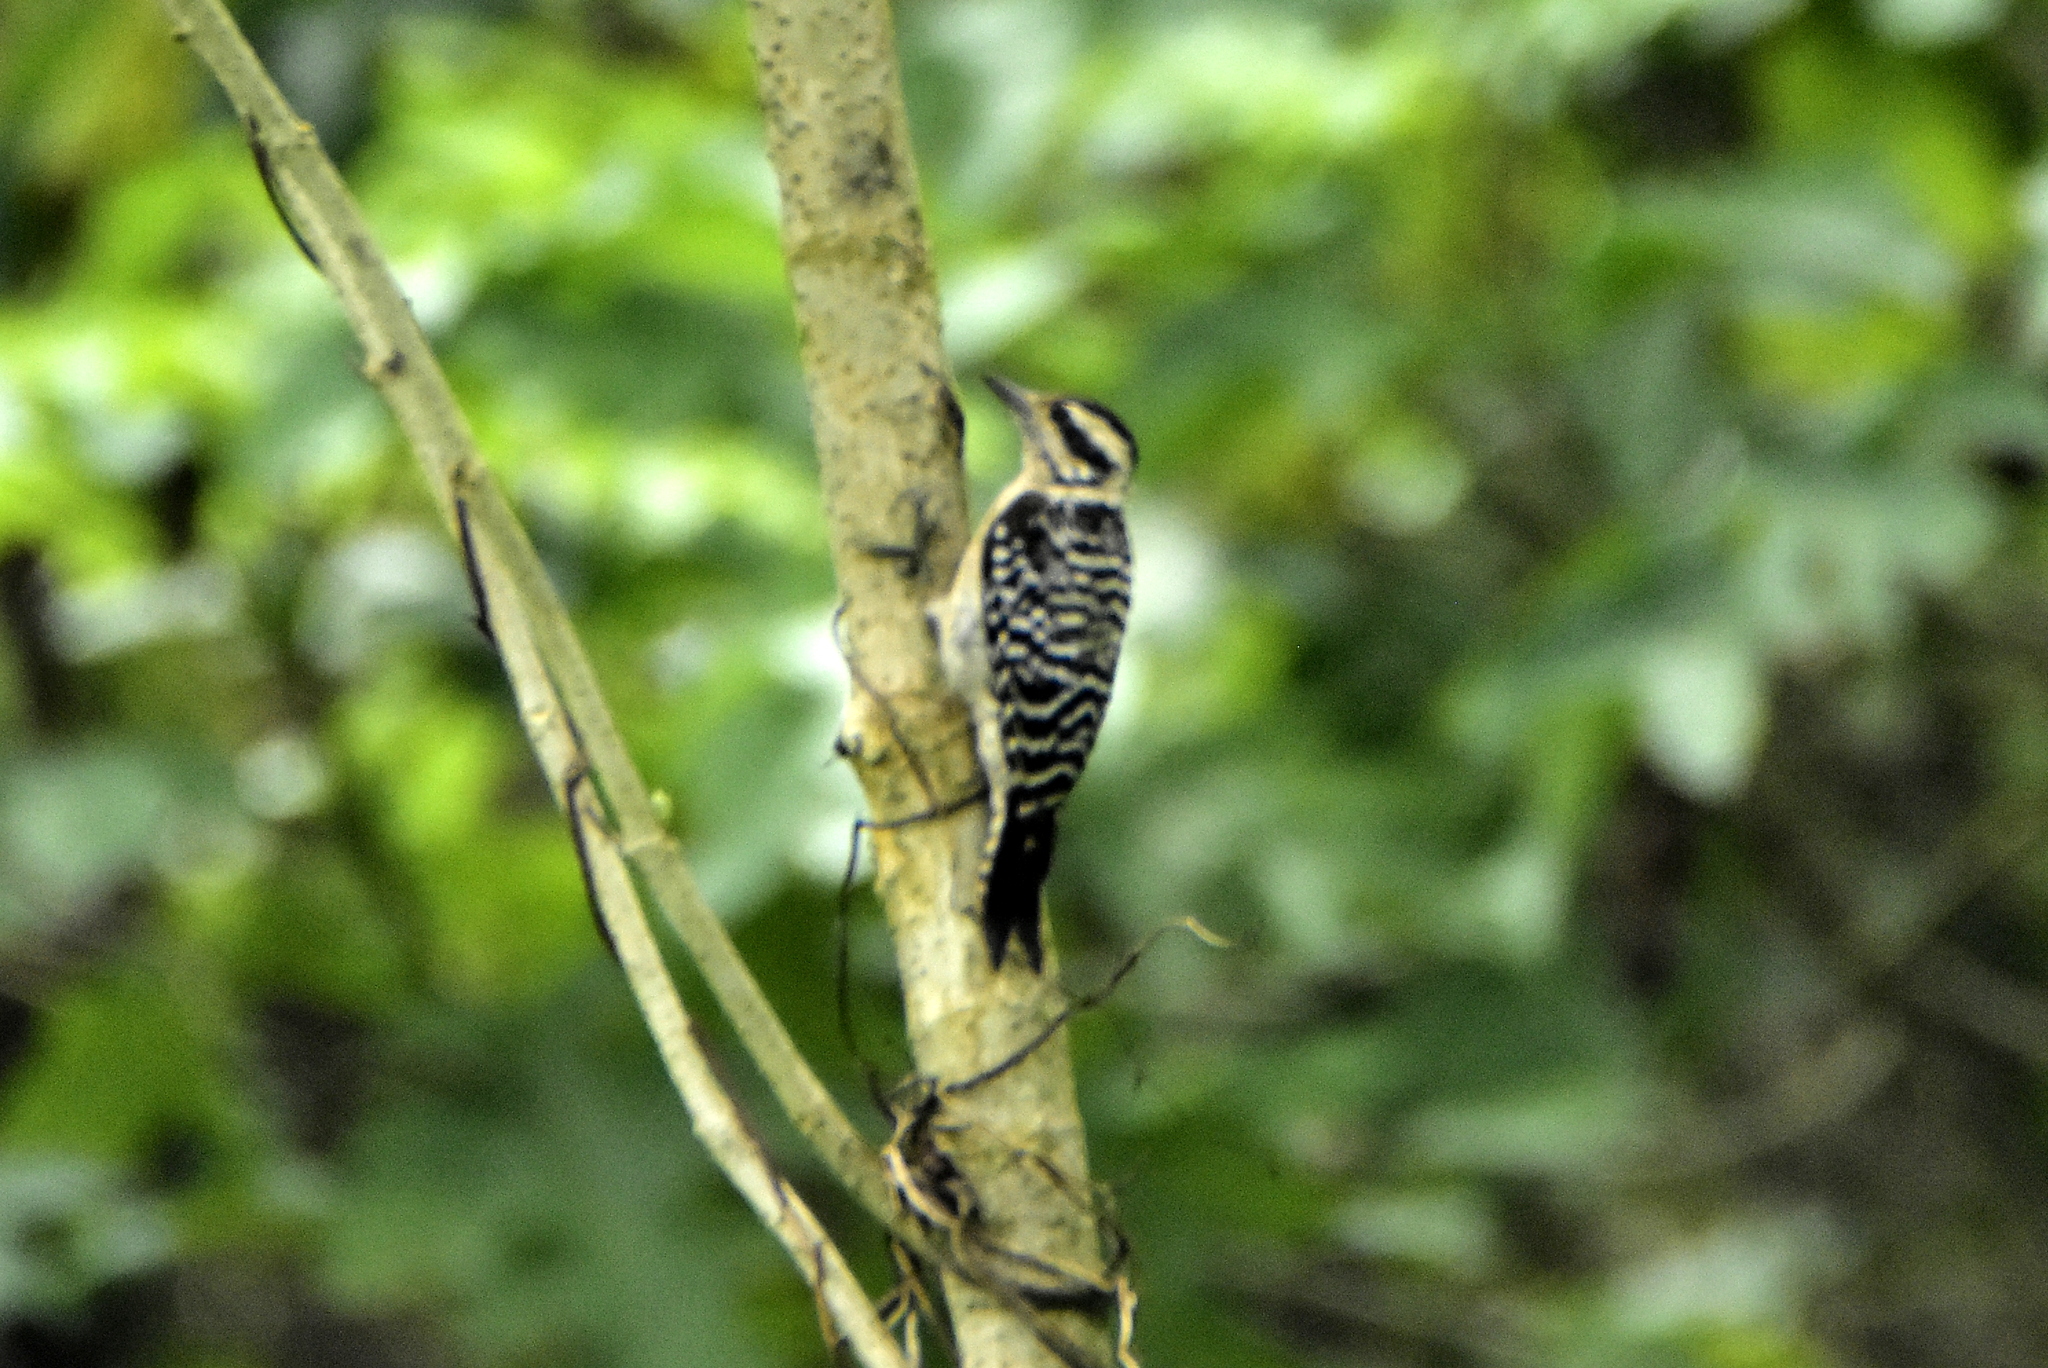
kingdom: Animalia
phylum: Chordata
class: Aves
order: Piciformes
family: Picidae
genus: Dryobates
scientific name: Dryobates scalaris
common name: Ladder-backed woodpecker
